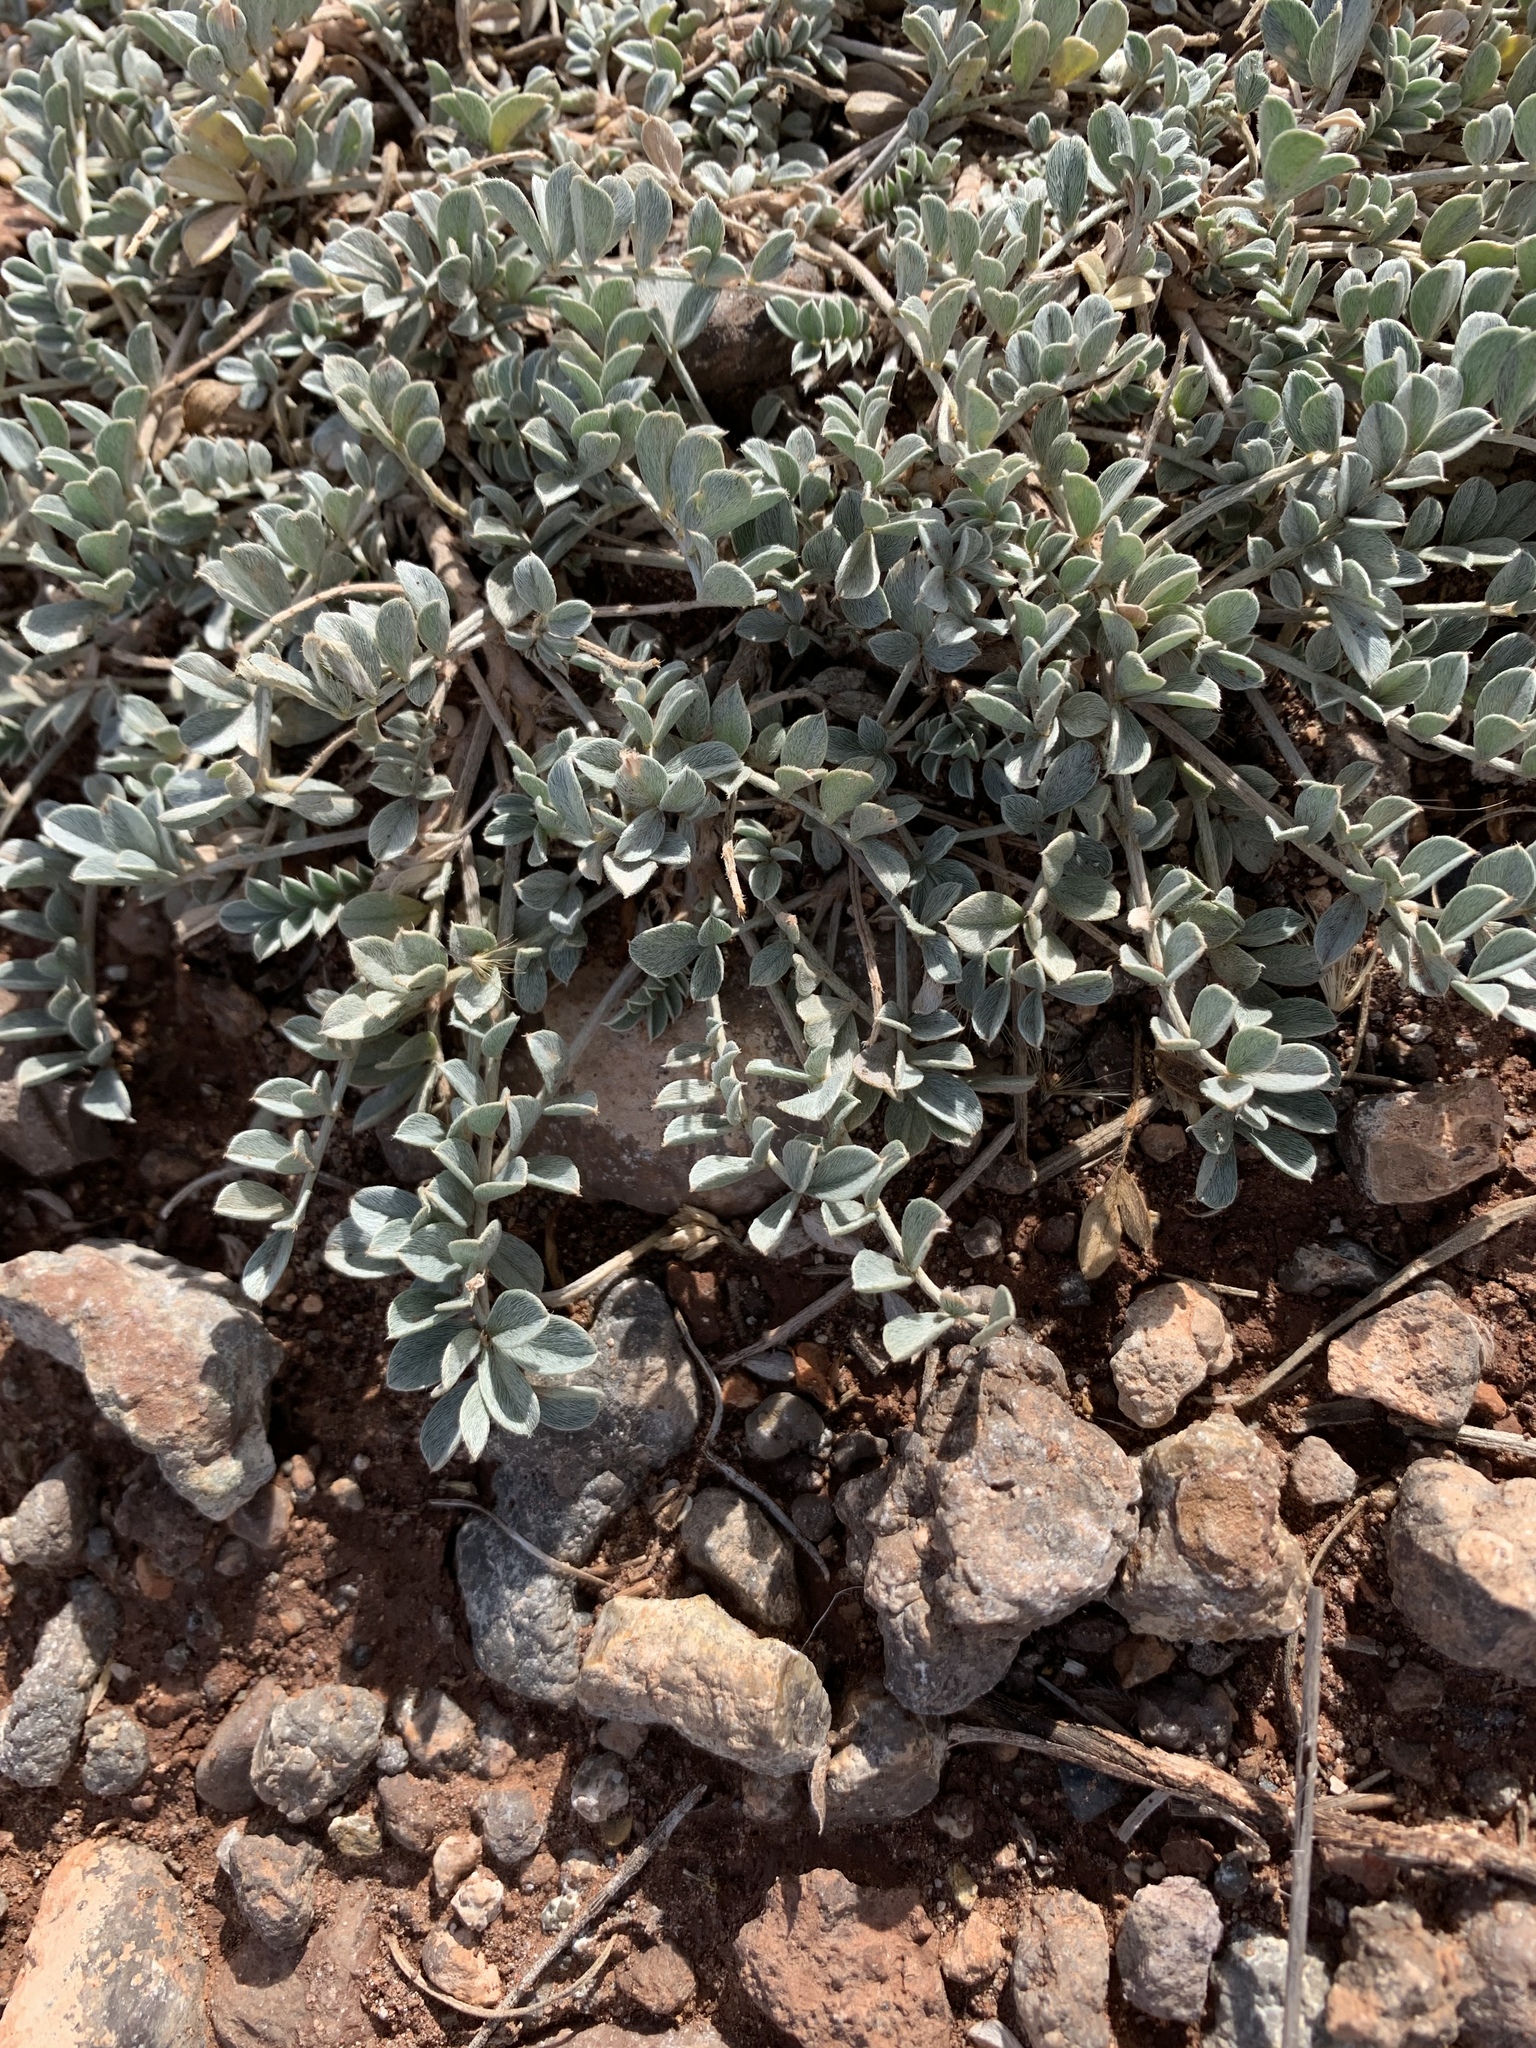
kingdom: Plantae
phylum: Tracheophyta
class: Magnoliopsida
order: Boraginales
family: Ehretiaceae
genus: Tiquilia
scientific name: Tiquilia canescens
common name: Hairy tiquilia
